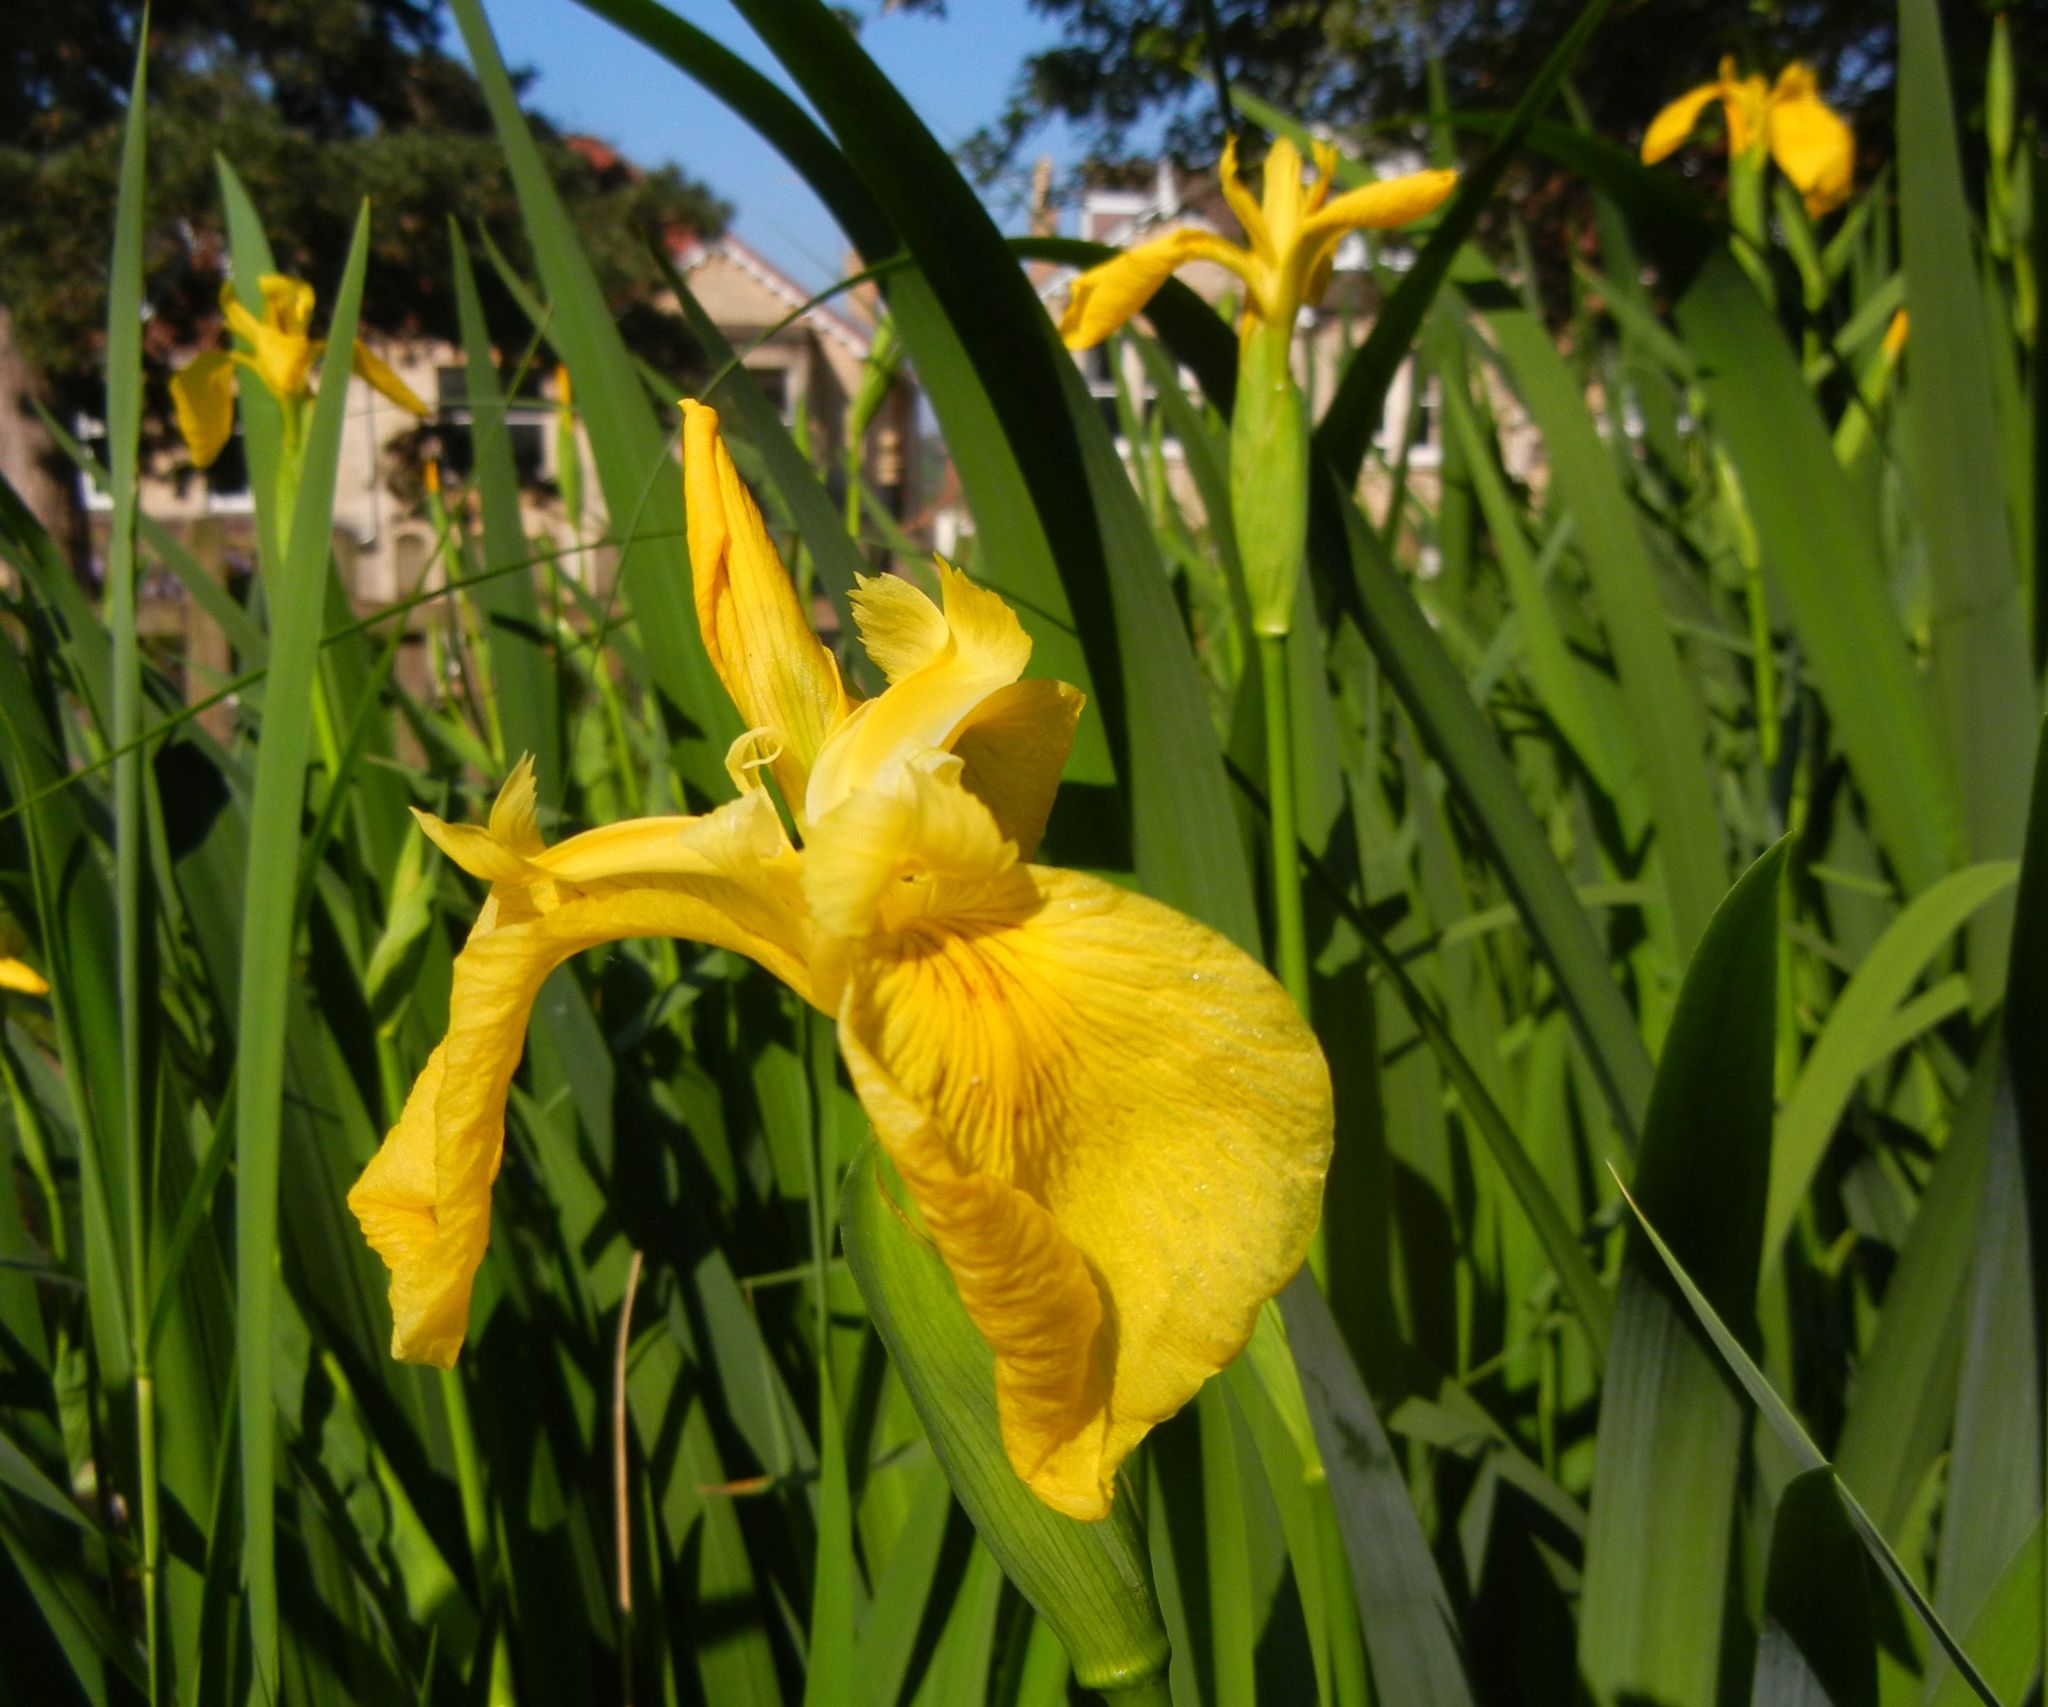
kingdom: Plantae
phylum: Tracheophyta
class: Liliopsida
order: Asparagales
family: Iridaceae
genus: Iris
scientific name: Iris pseudacorus
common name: Yellow flag
